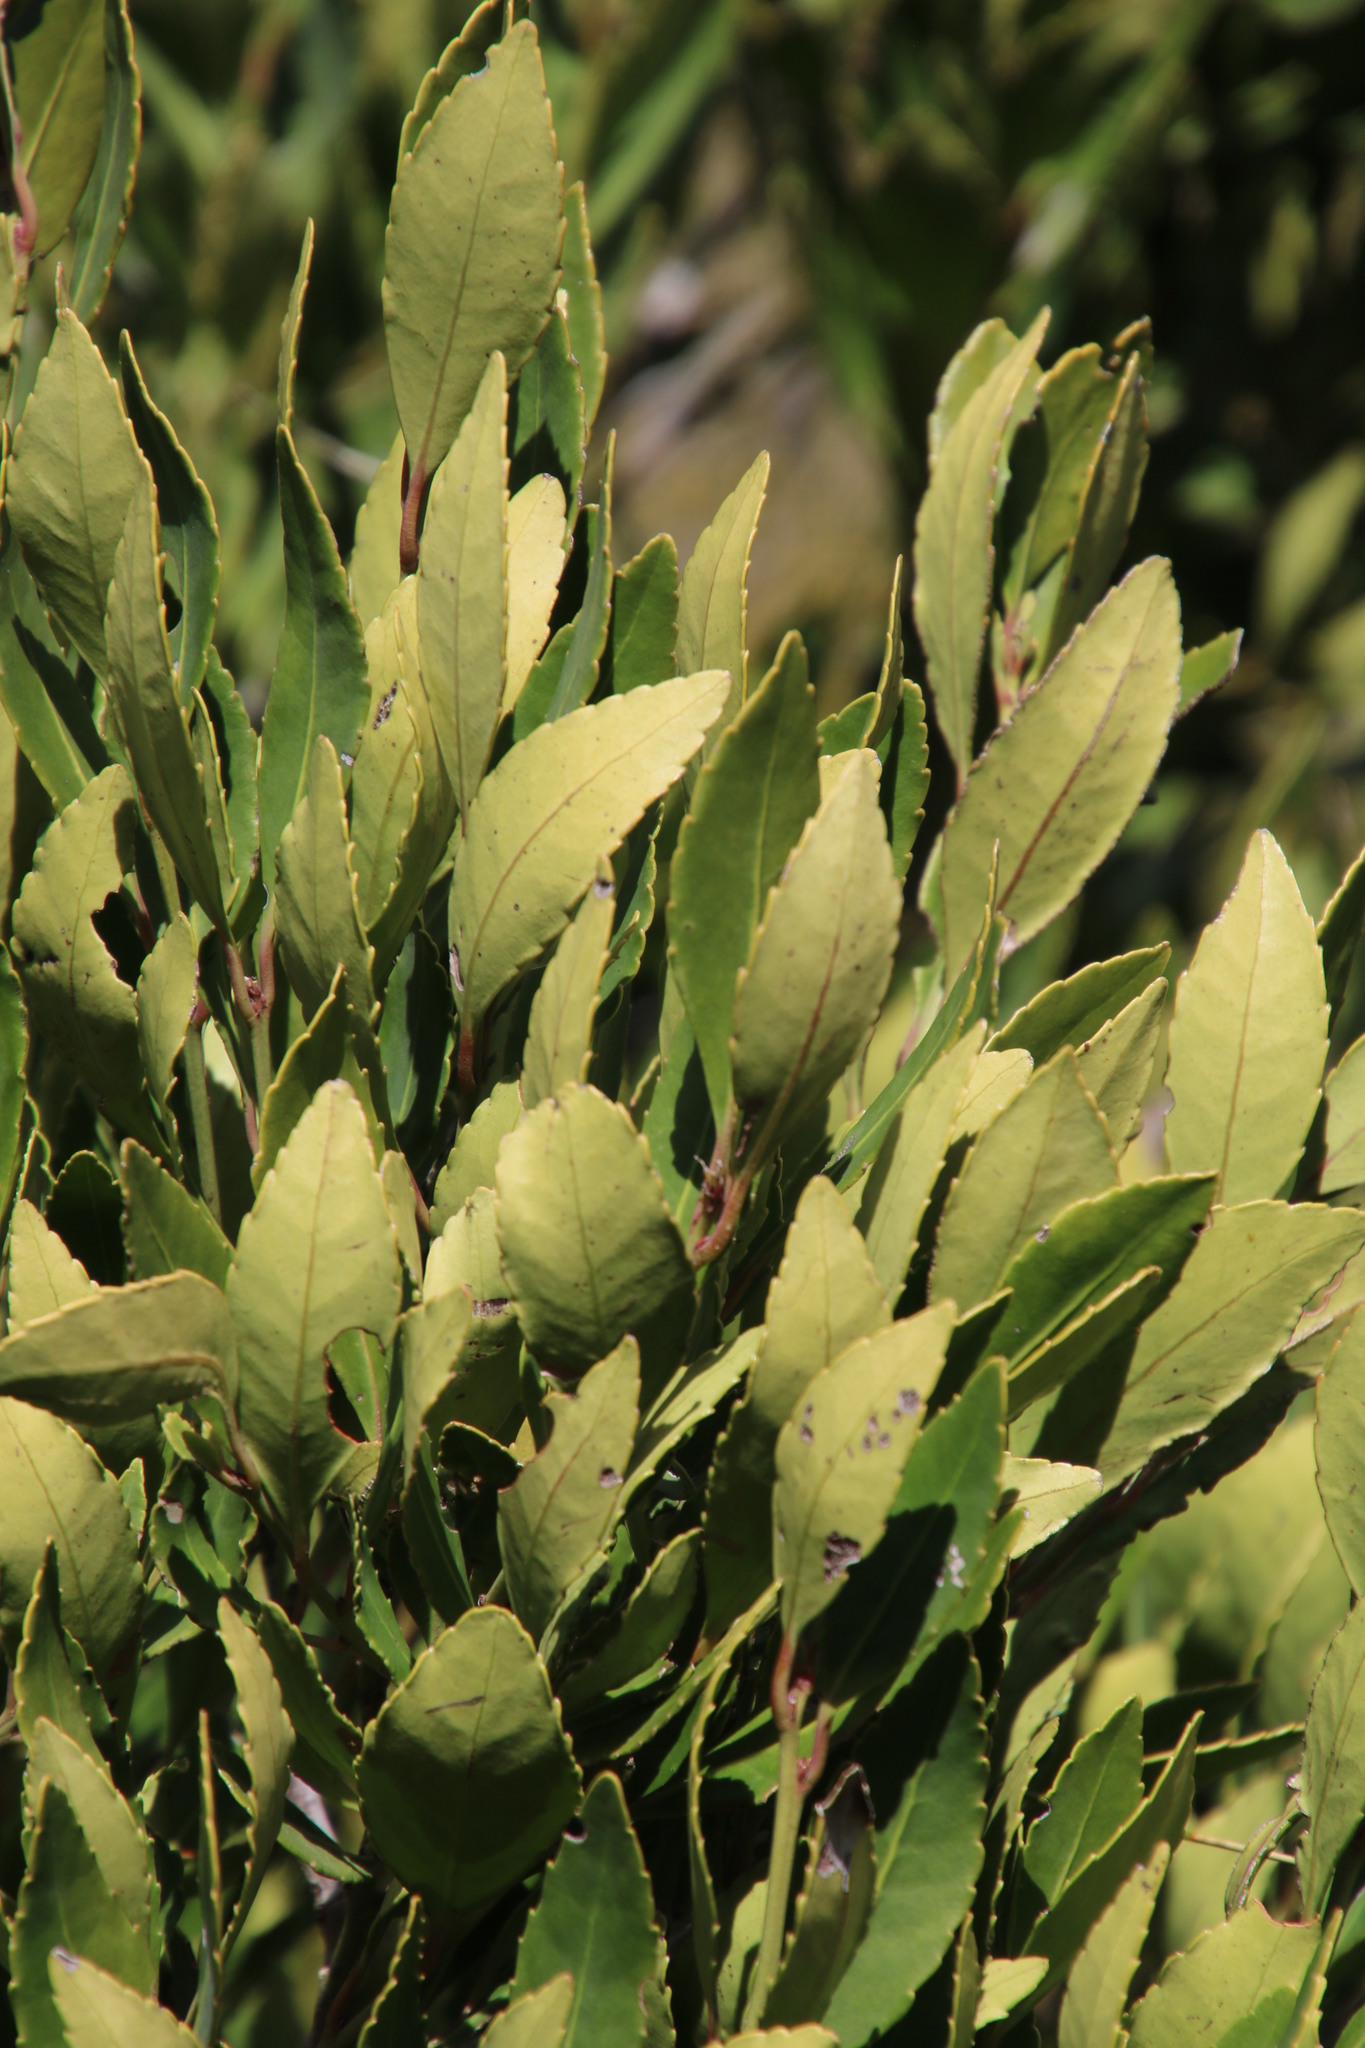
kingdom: Plantae
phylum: Tracheophyta
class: Magnoliopsida
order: Celastrales
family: Celastraceae
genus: Elaeodendron
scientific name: Elaeodendron schinoides
